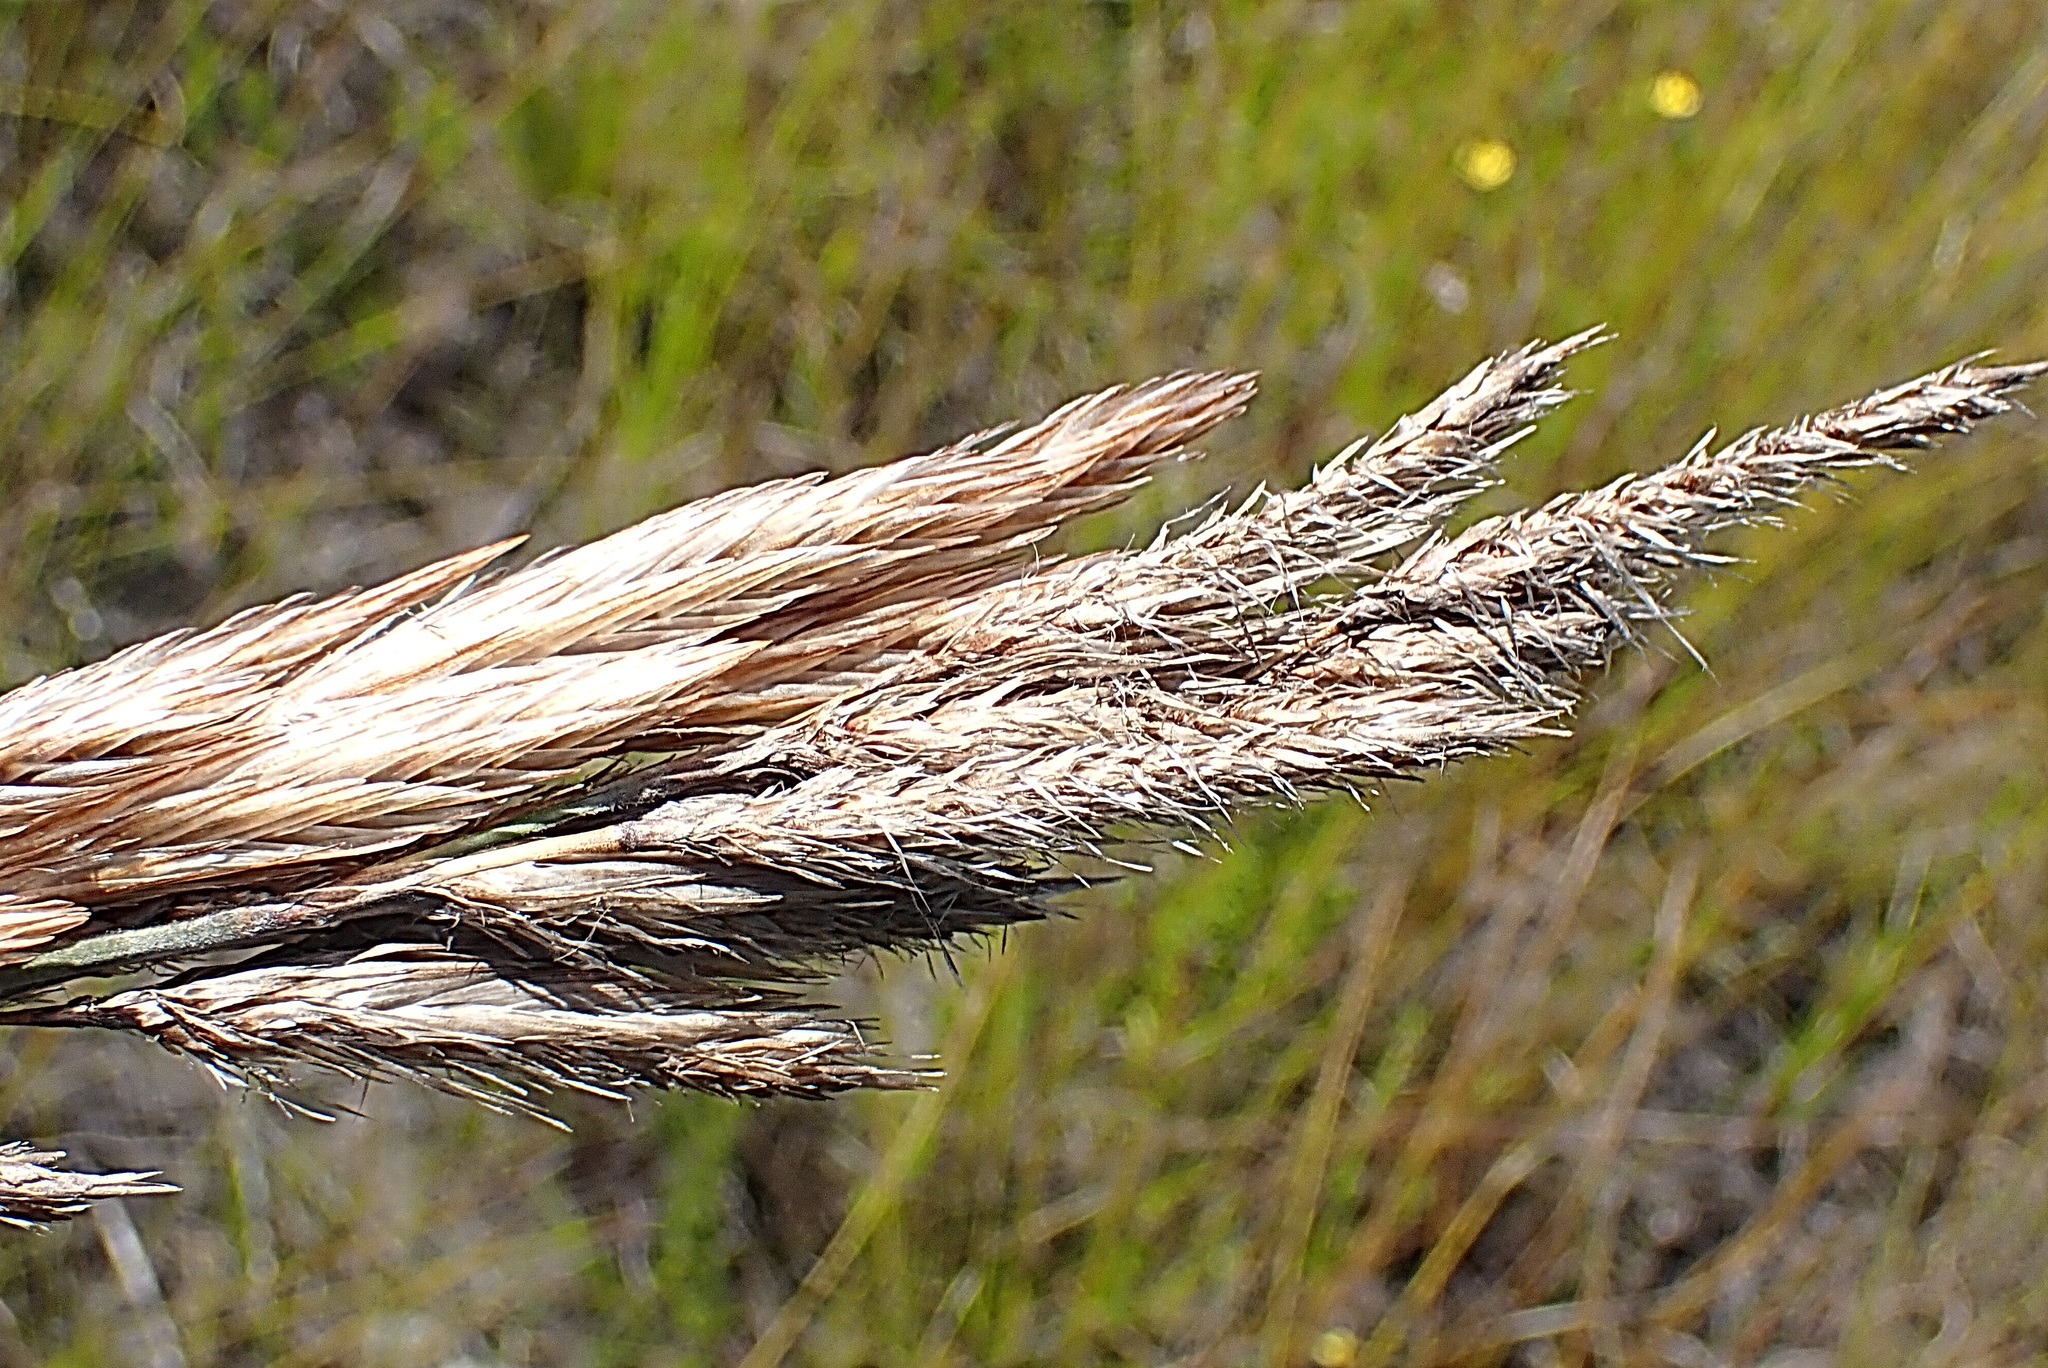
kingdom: Plantae
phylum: Tracheophyta
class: Liliopsida
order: Poales
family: Restionaceae
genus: Thamnochortus
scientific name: Thamnochortus cinereus
